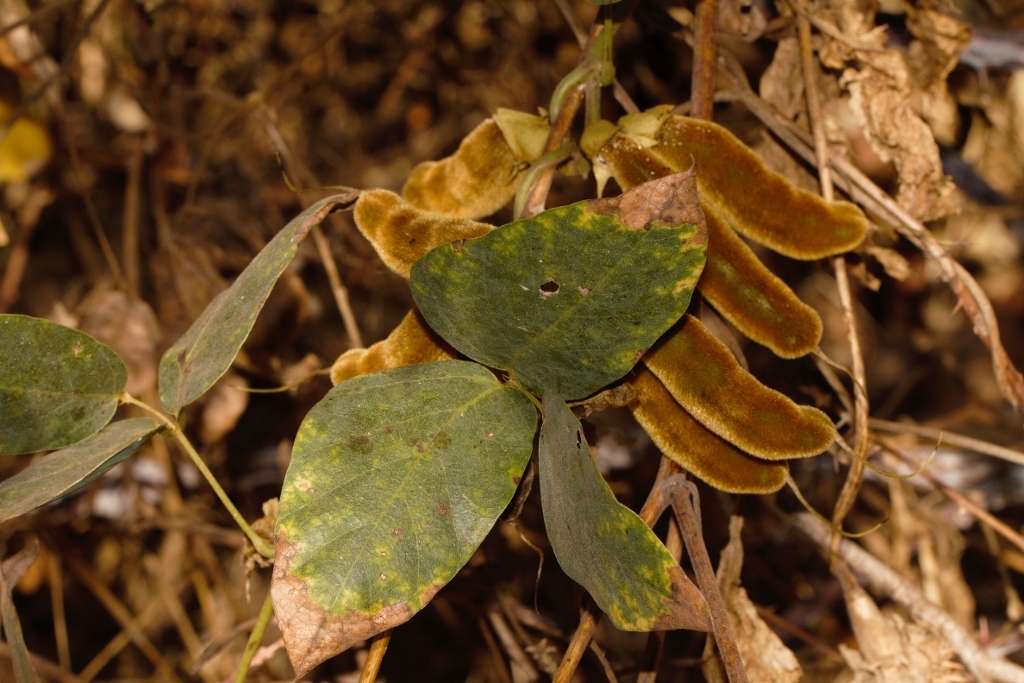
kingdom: Plantae
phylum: Tracheophyta
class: Magnoliopsida
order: Fabales
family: Fabaceae
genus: Mucuna
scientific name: Mucuna coriacea
